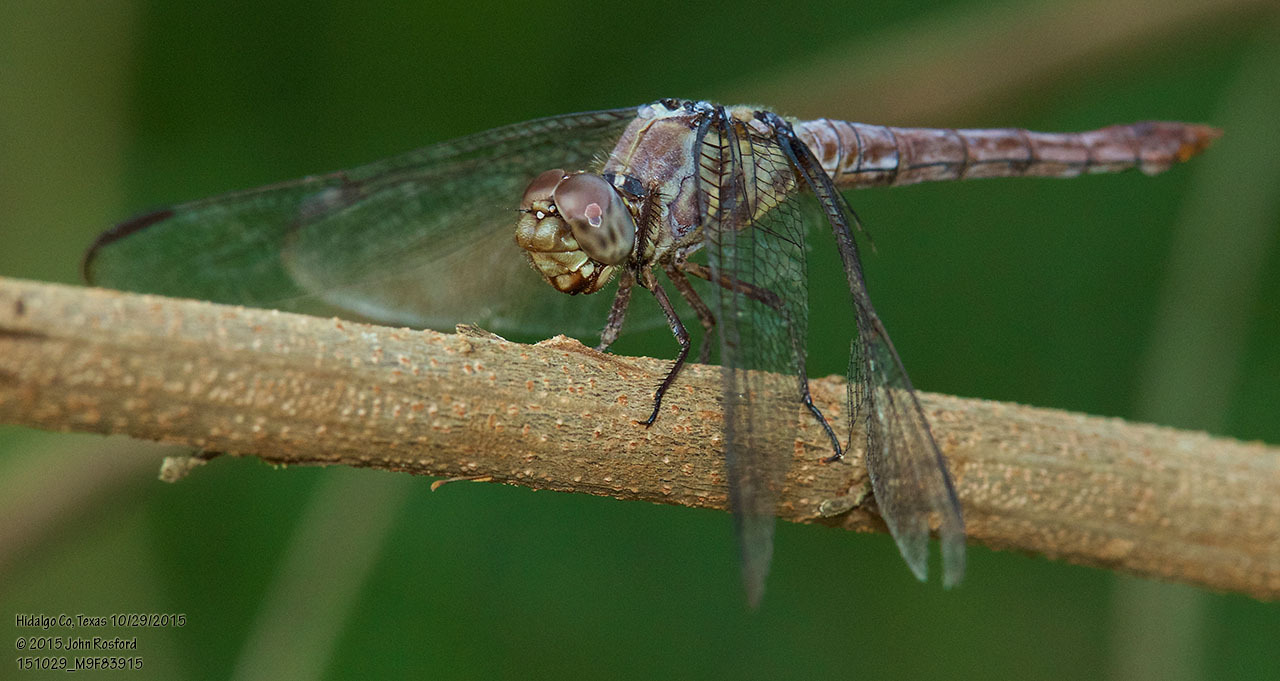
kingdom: Animalia
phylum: Arthropoda
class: Insecta
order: Odonata
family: Libellulidae
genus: Orthemis
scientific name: Orthemis ferruginea
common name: Roseate skimmer
